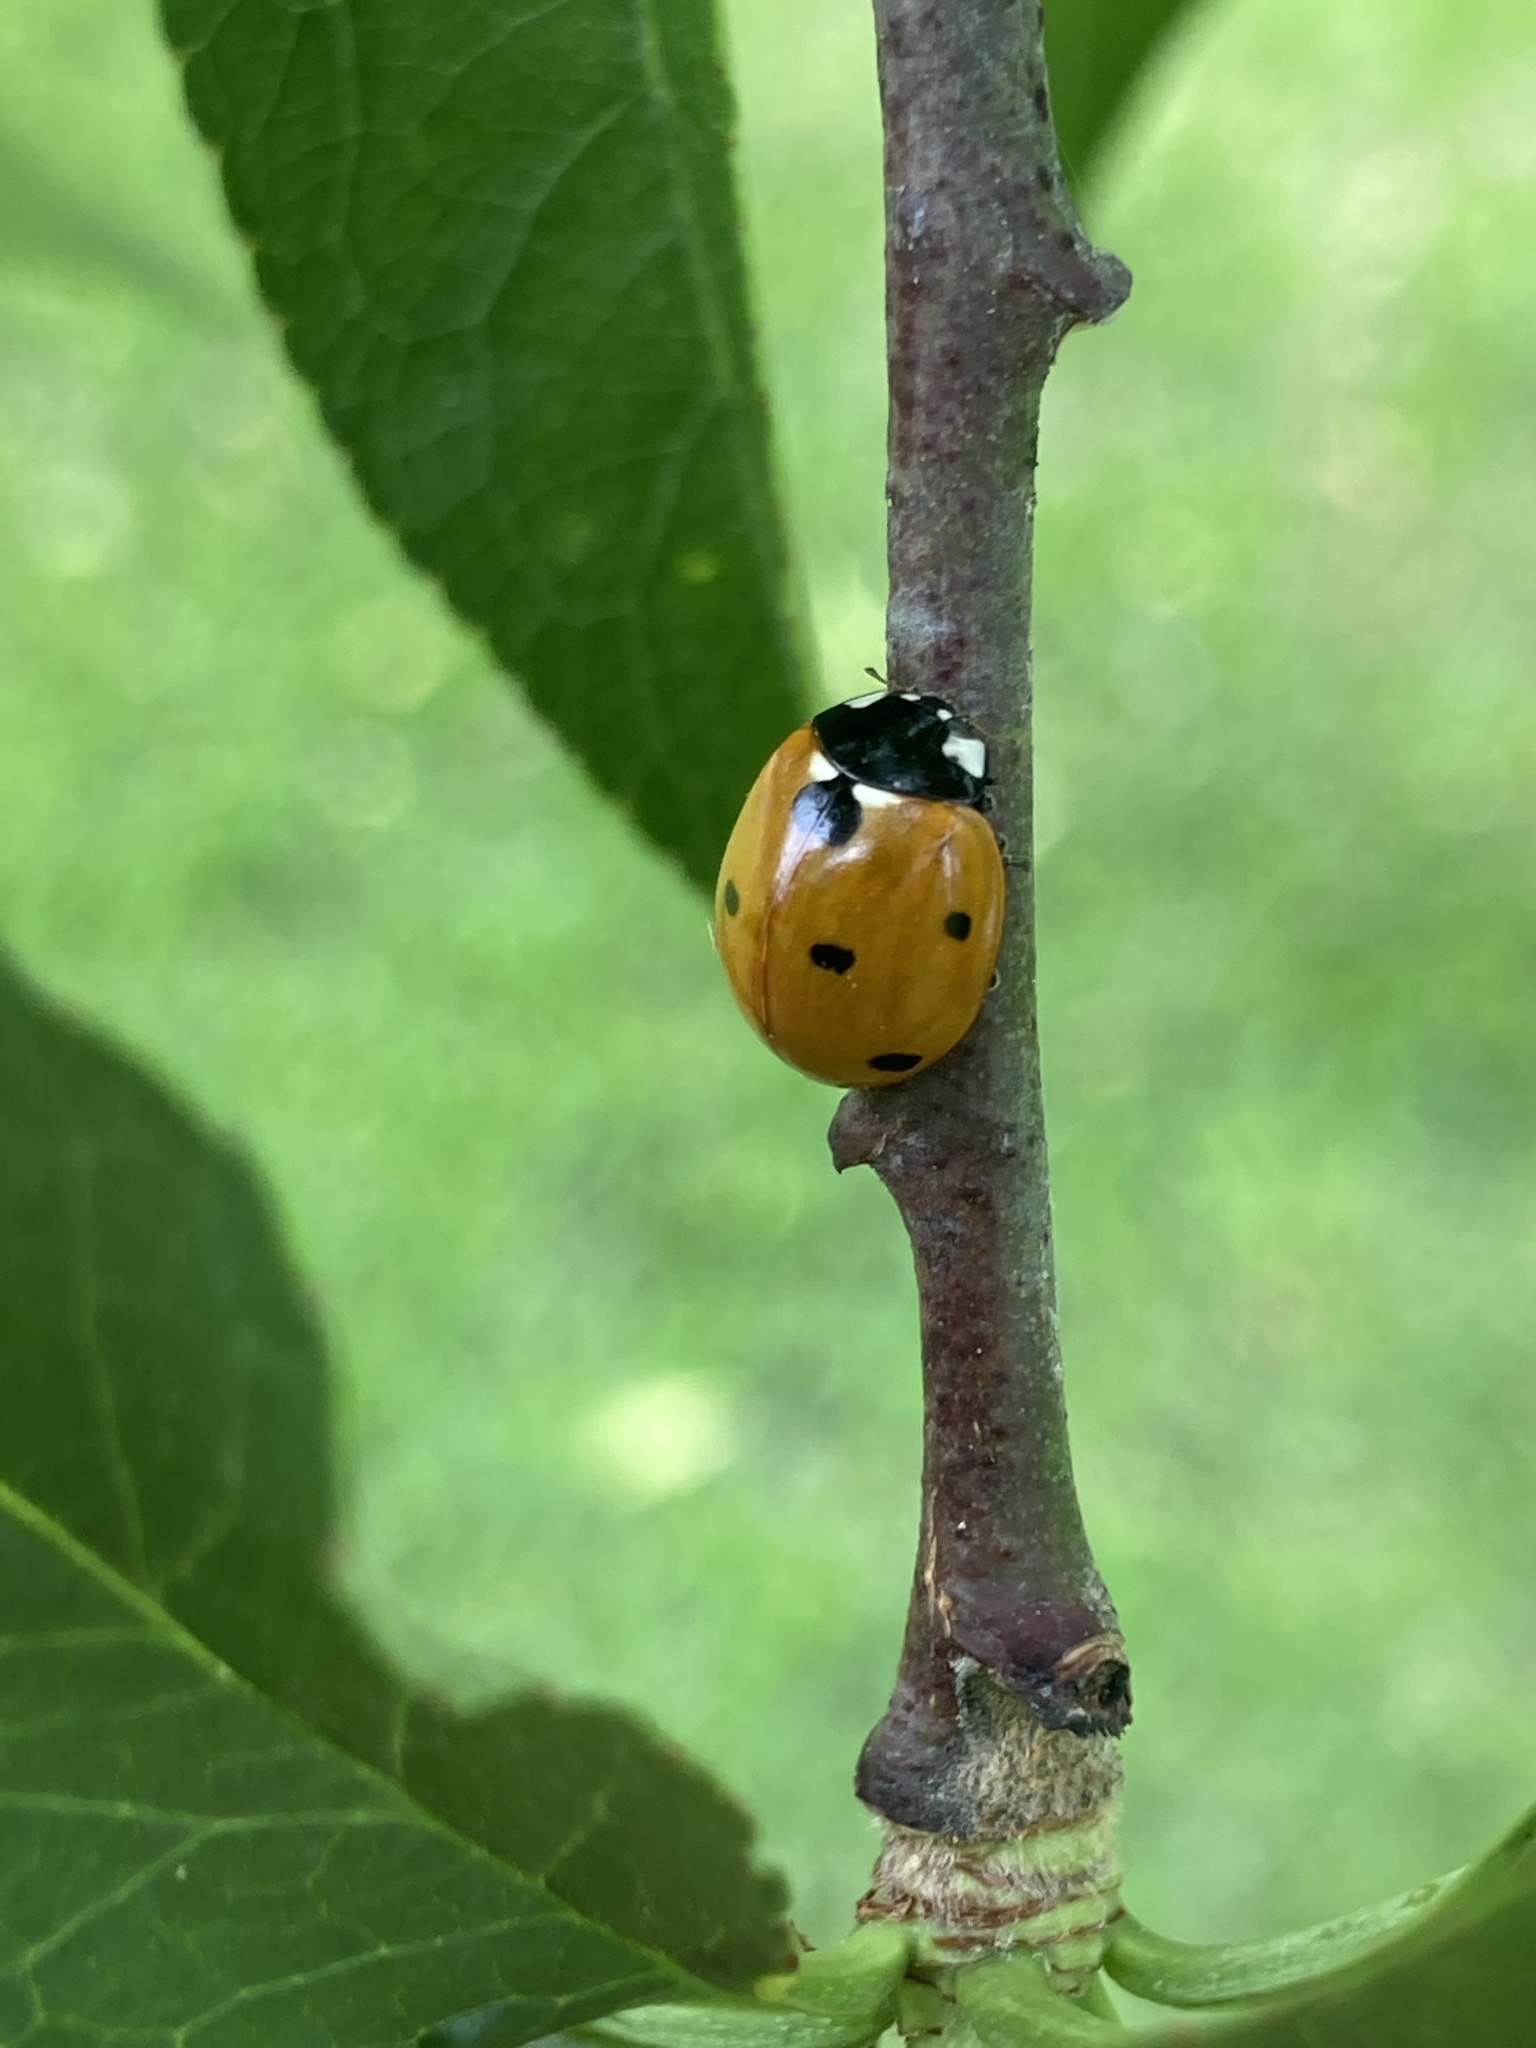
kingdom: Animalia
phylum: Arthropoda
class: Insecta
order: Coleoptera
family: Coccinellidae
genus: Coccinella
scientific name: Coccinella septempunctata
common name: Sevenspotted lady beetle
